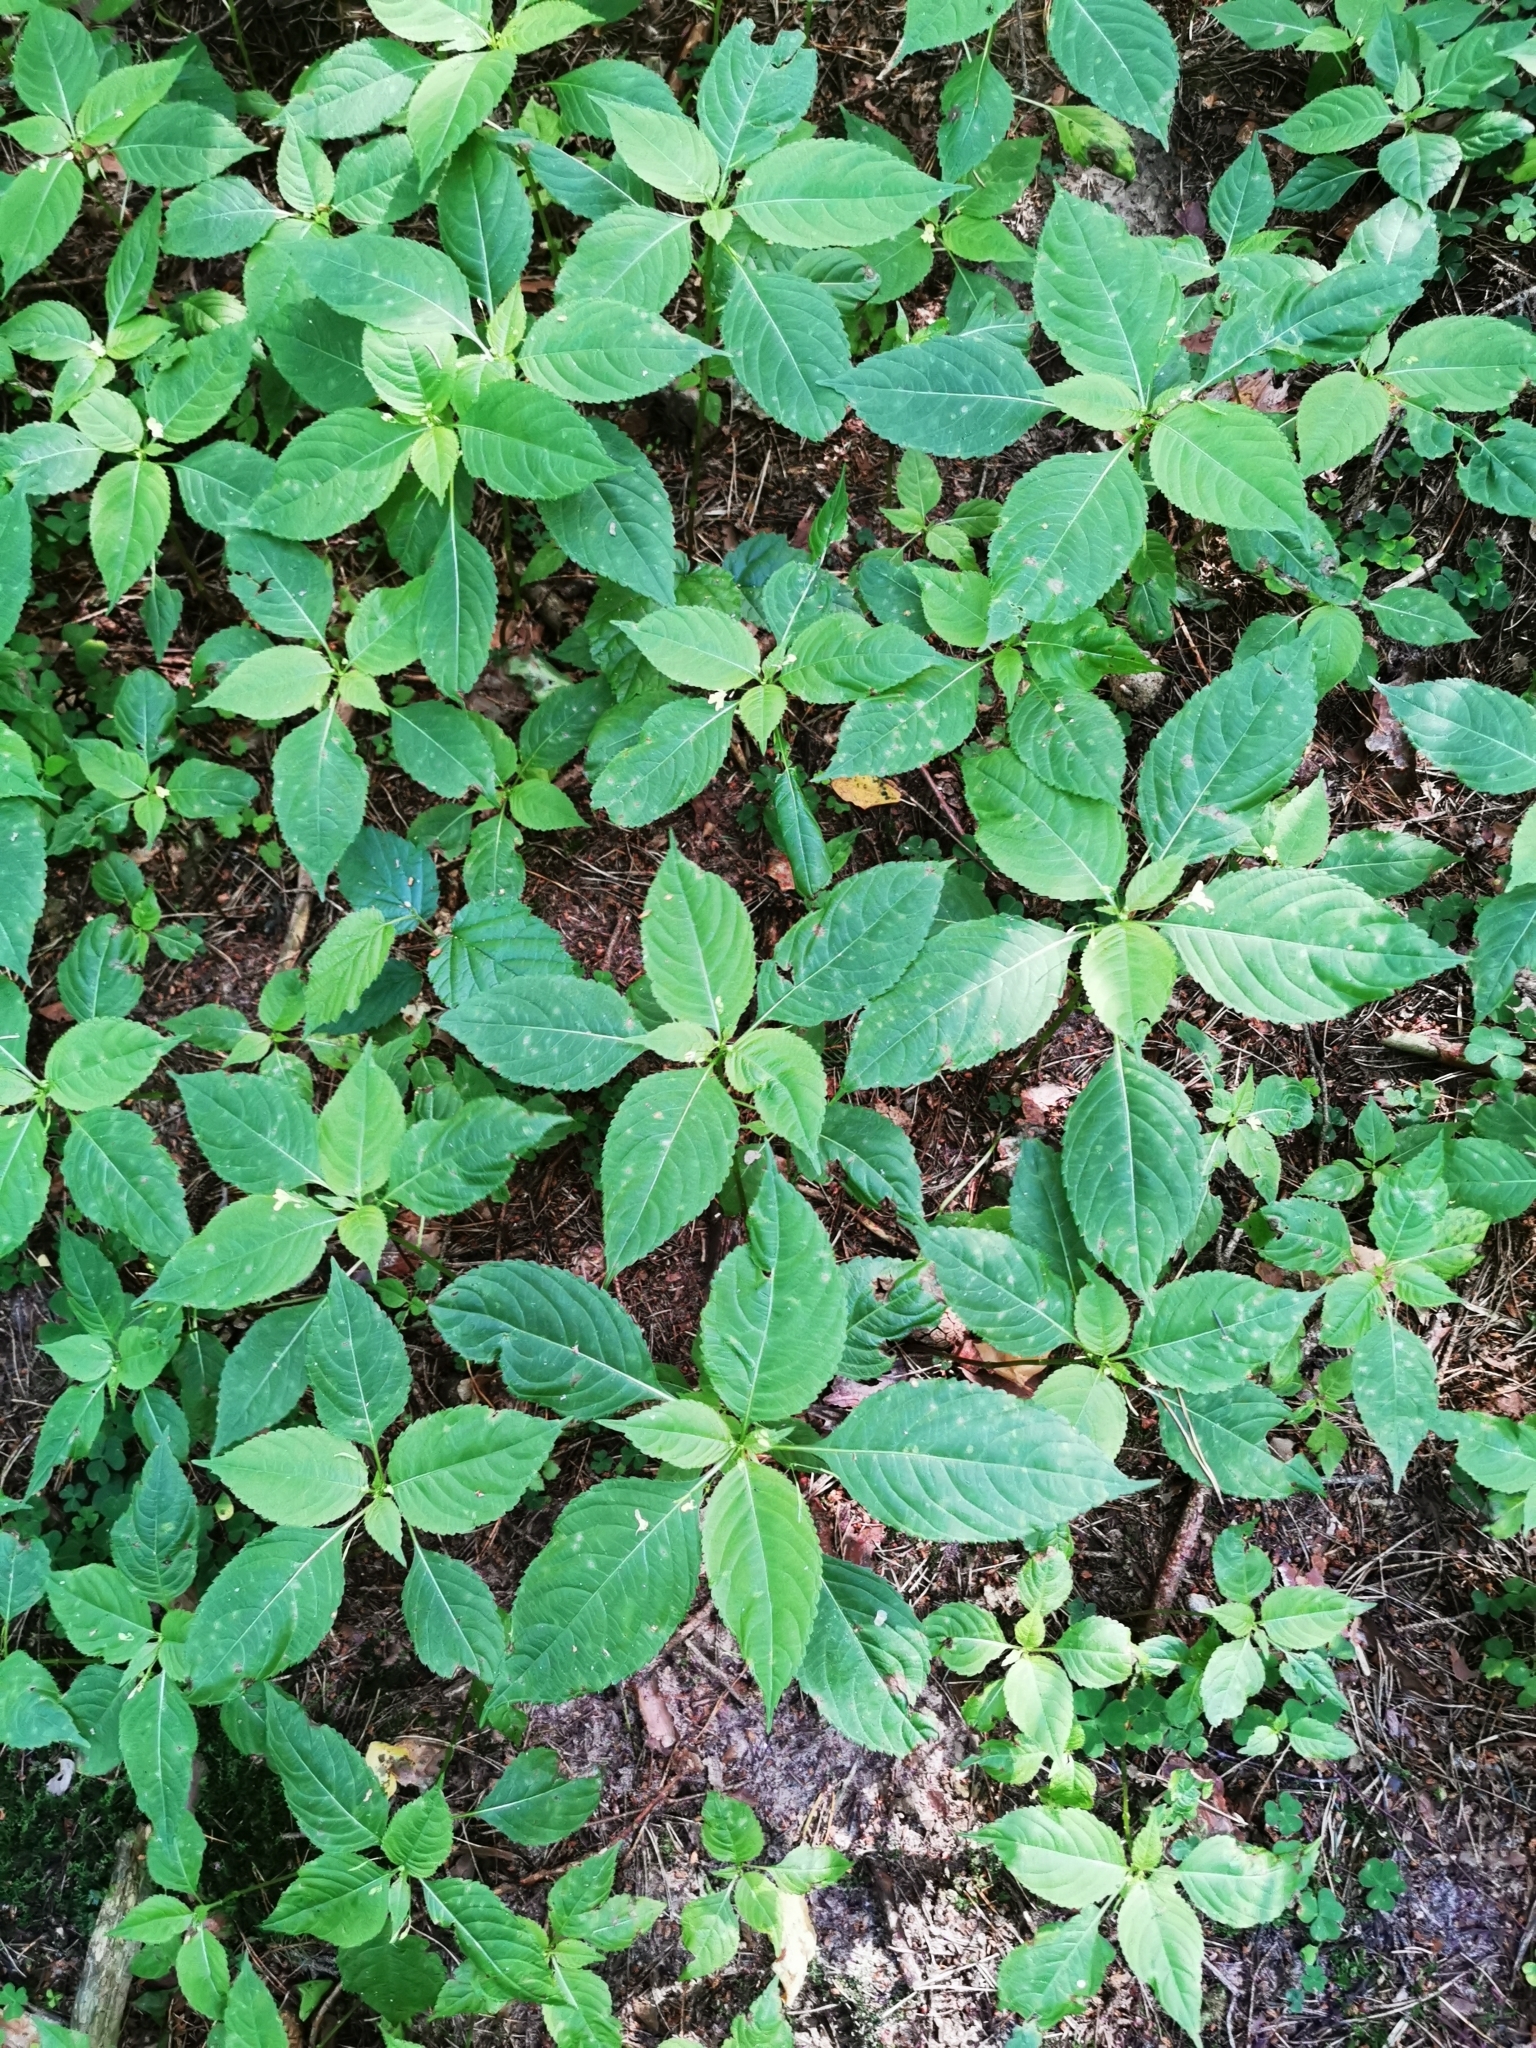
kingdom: Plantae
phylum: Tracheophyta
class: Magnoliopsida
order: Ericales
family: Balsaminaceae
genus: Impatiens
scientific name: Impatiens parviflora
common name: Small balsam
